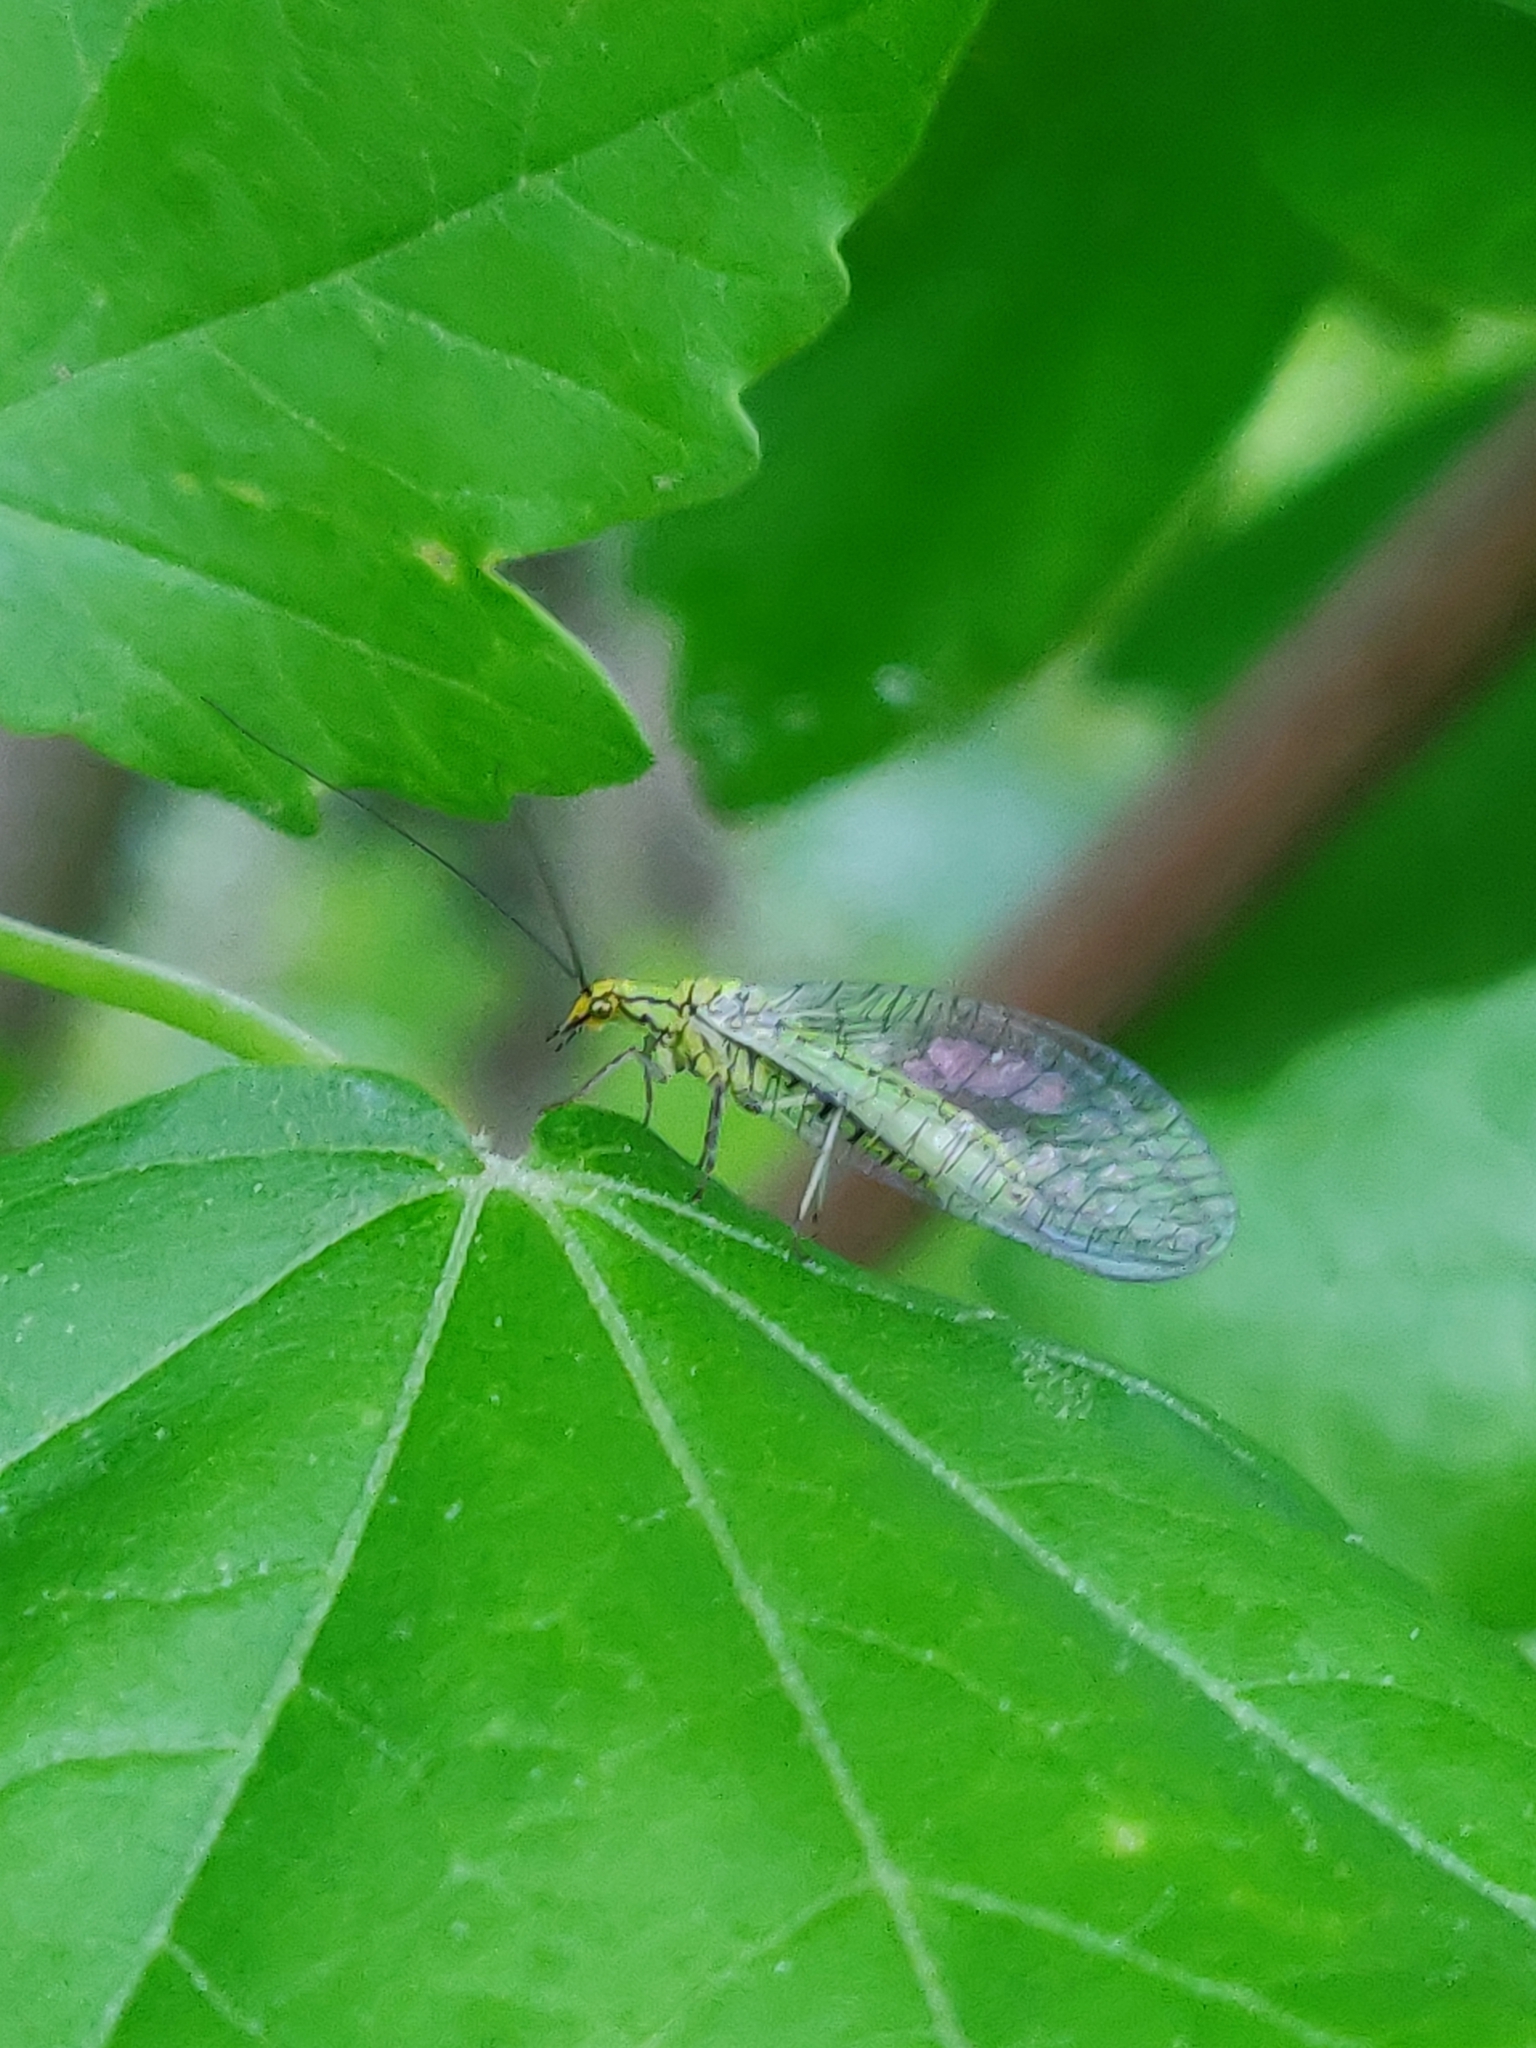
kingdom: Animalia
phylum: Arthropoda
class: Insecta
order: Neuroptera
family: Chrysopidae
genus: Hypochrysa
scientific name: Hypochrysa elegans
